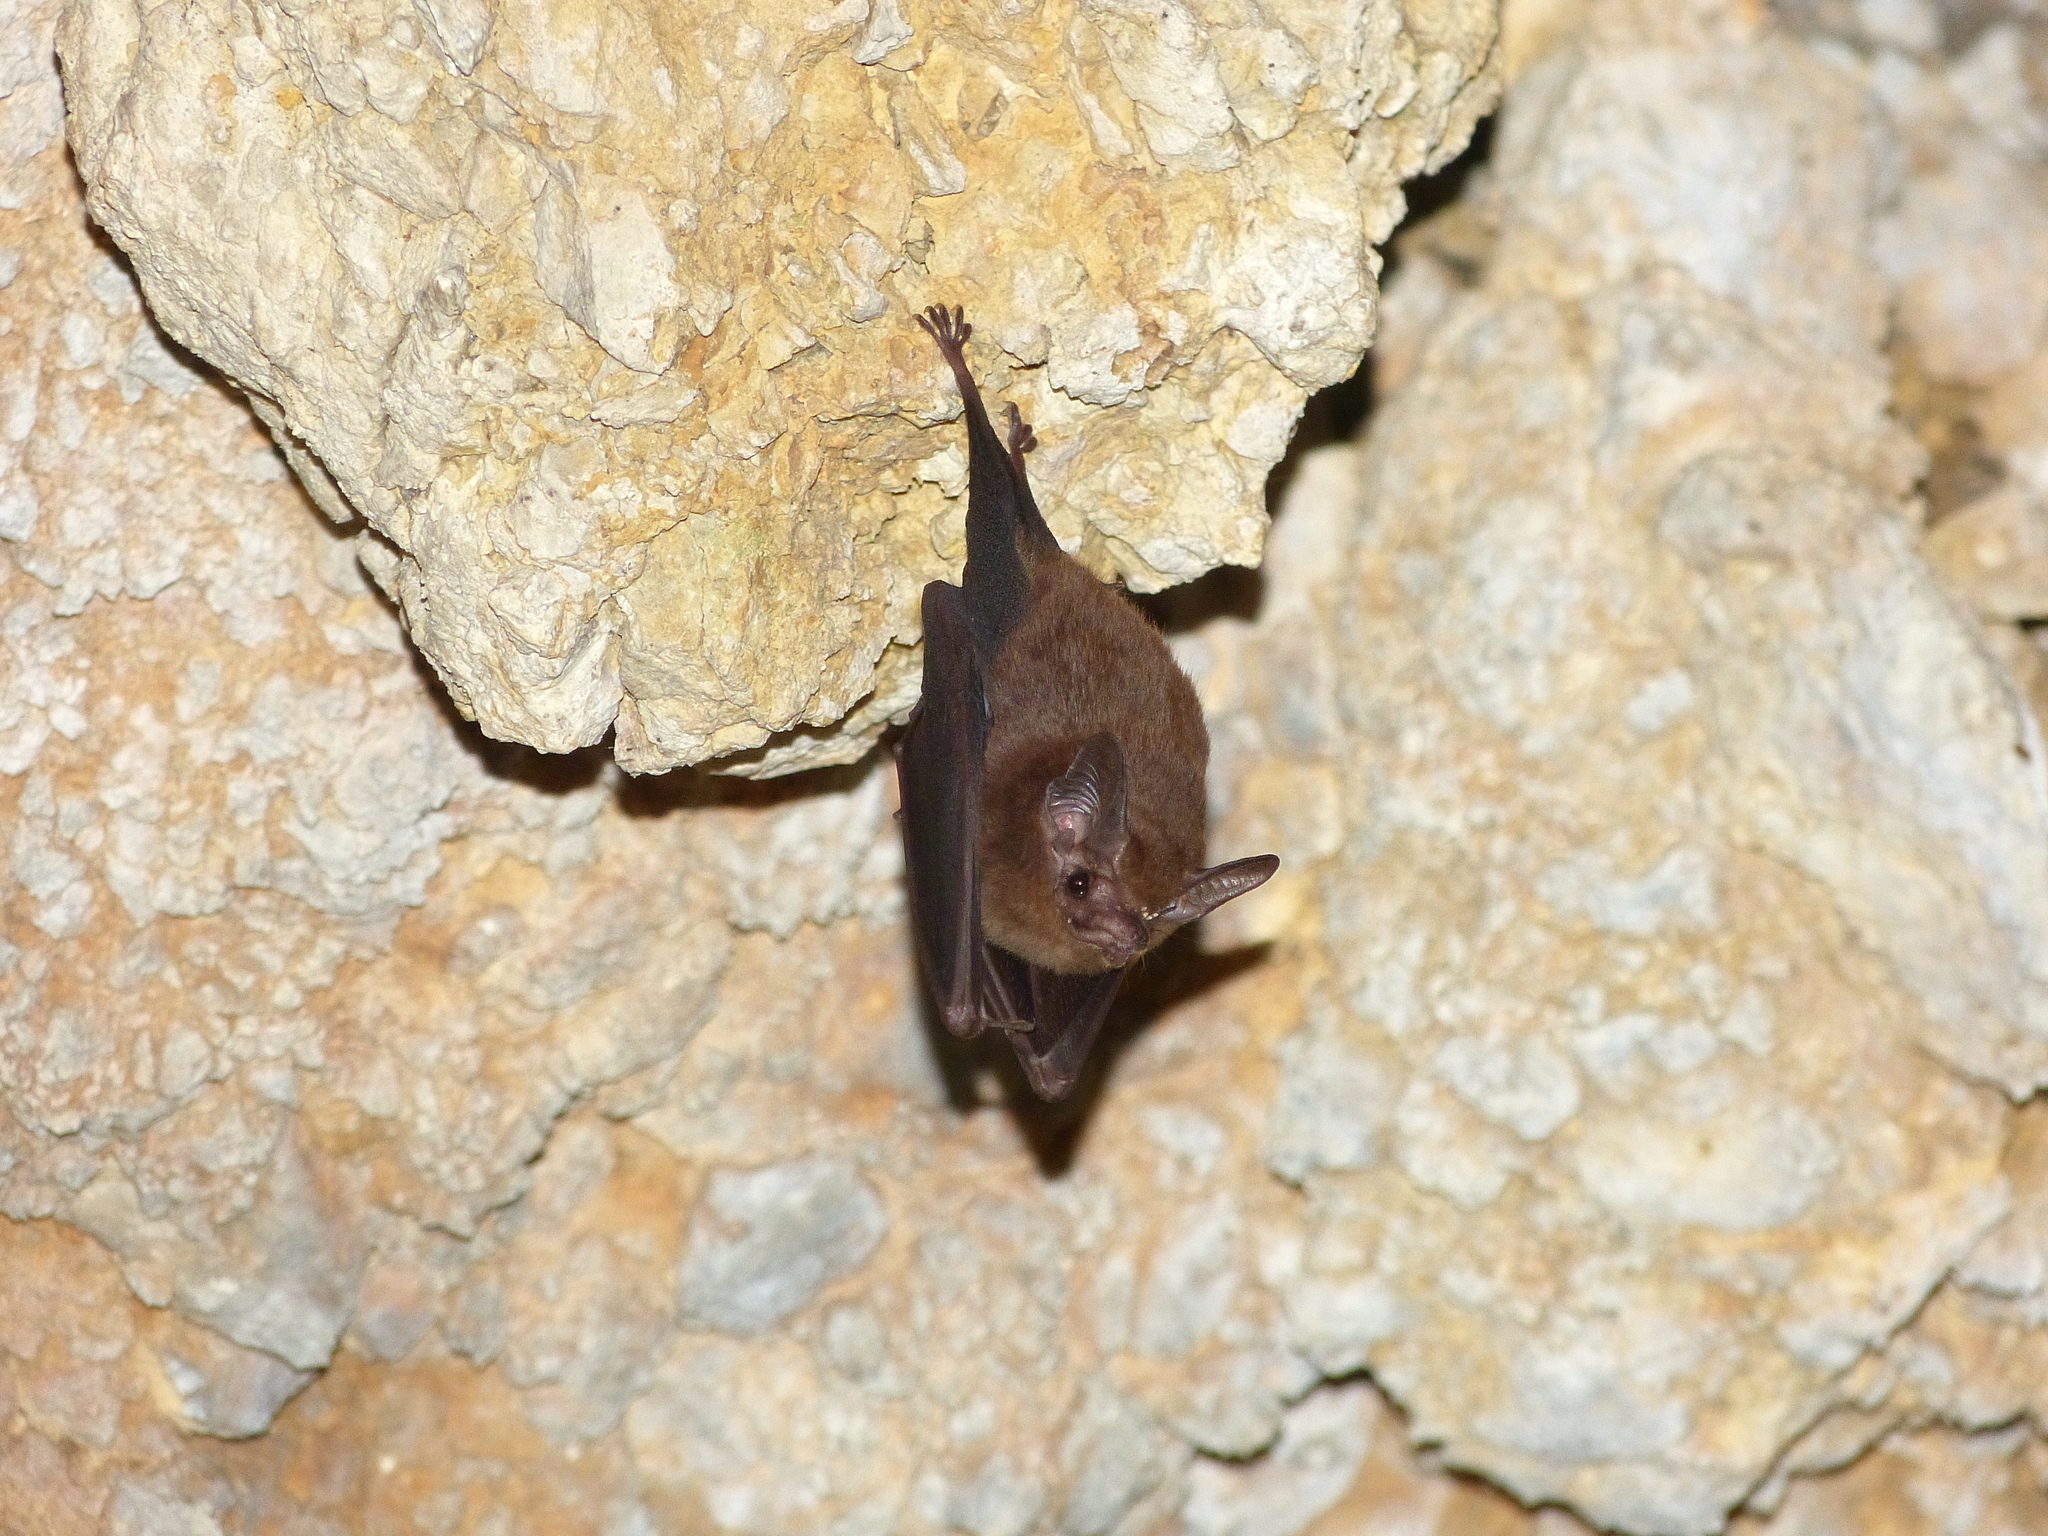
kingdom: Animalia
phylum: Chordata
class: Mammalia
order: Chiroptera
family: Emballonuridae
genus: Peropteryx
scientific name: Peropteryx macrotis
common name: Lesser dog-like bat
